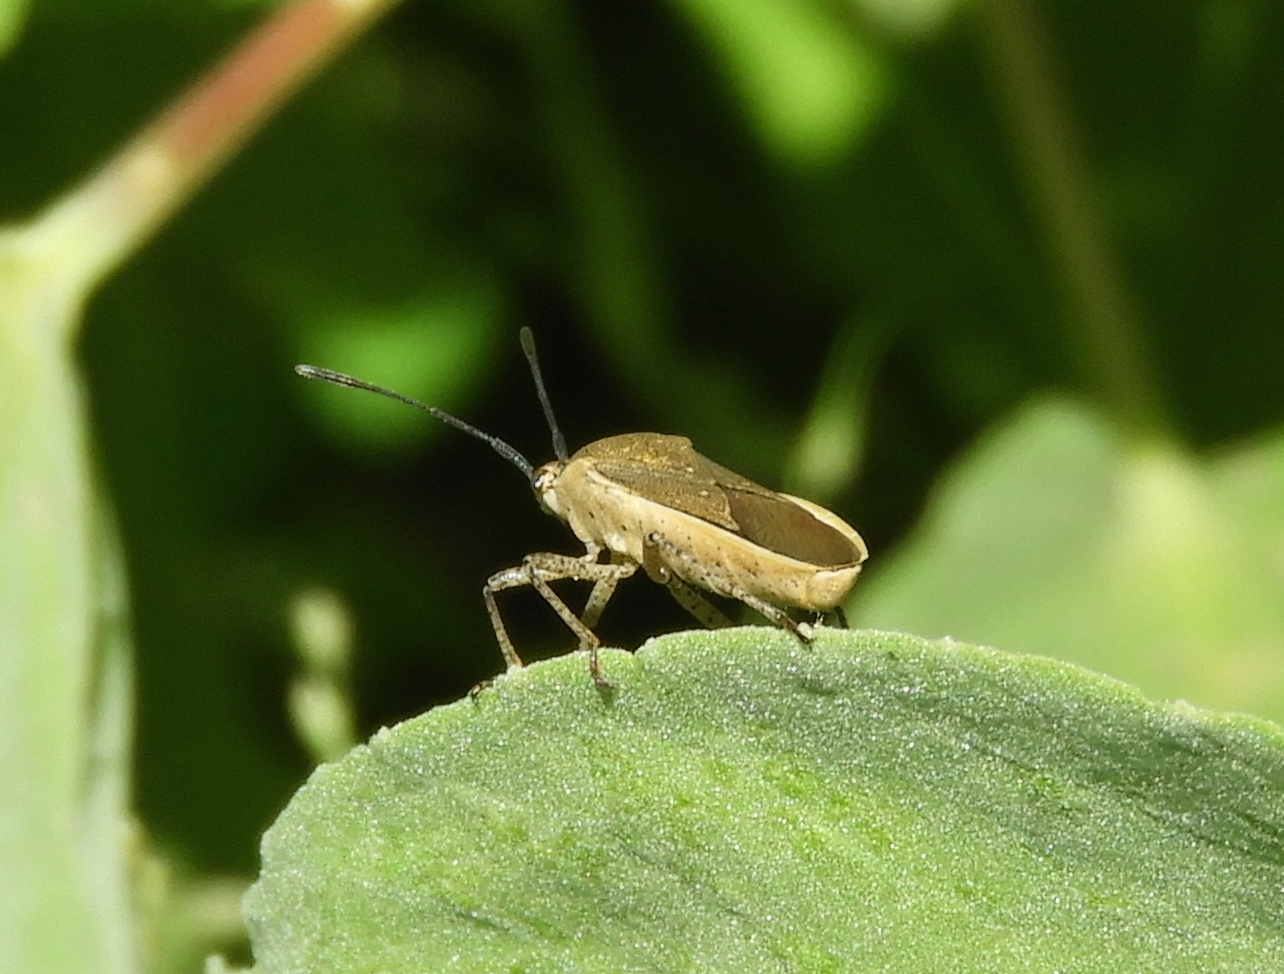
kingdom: Animalia
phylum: Arthropoda
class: Insecta
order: Hemiptera
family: Coreidae
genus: Catorhintha
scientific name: Catorhintha selector
